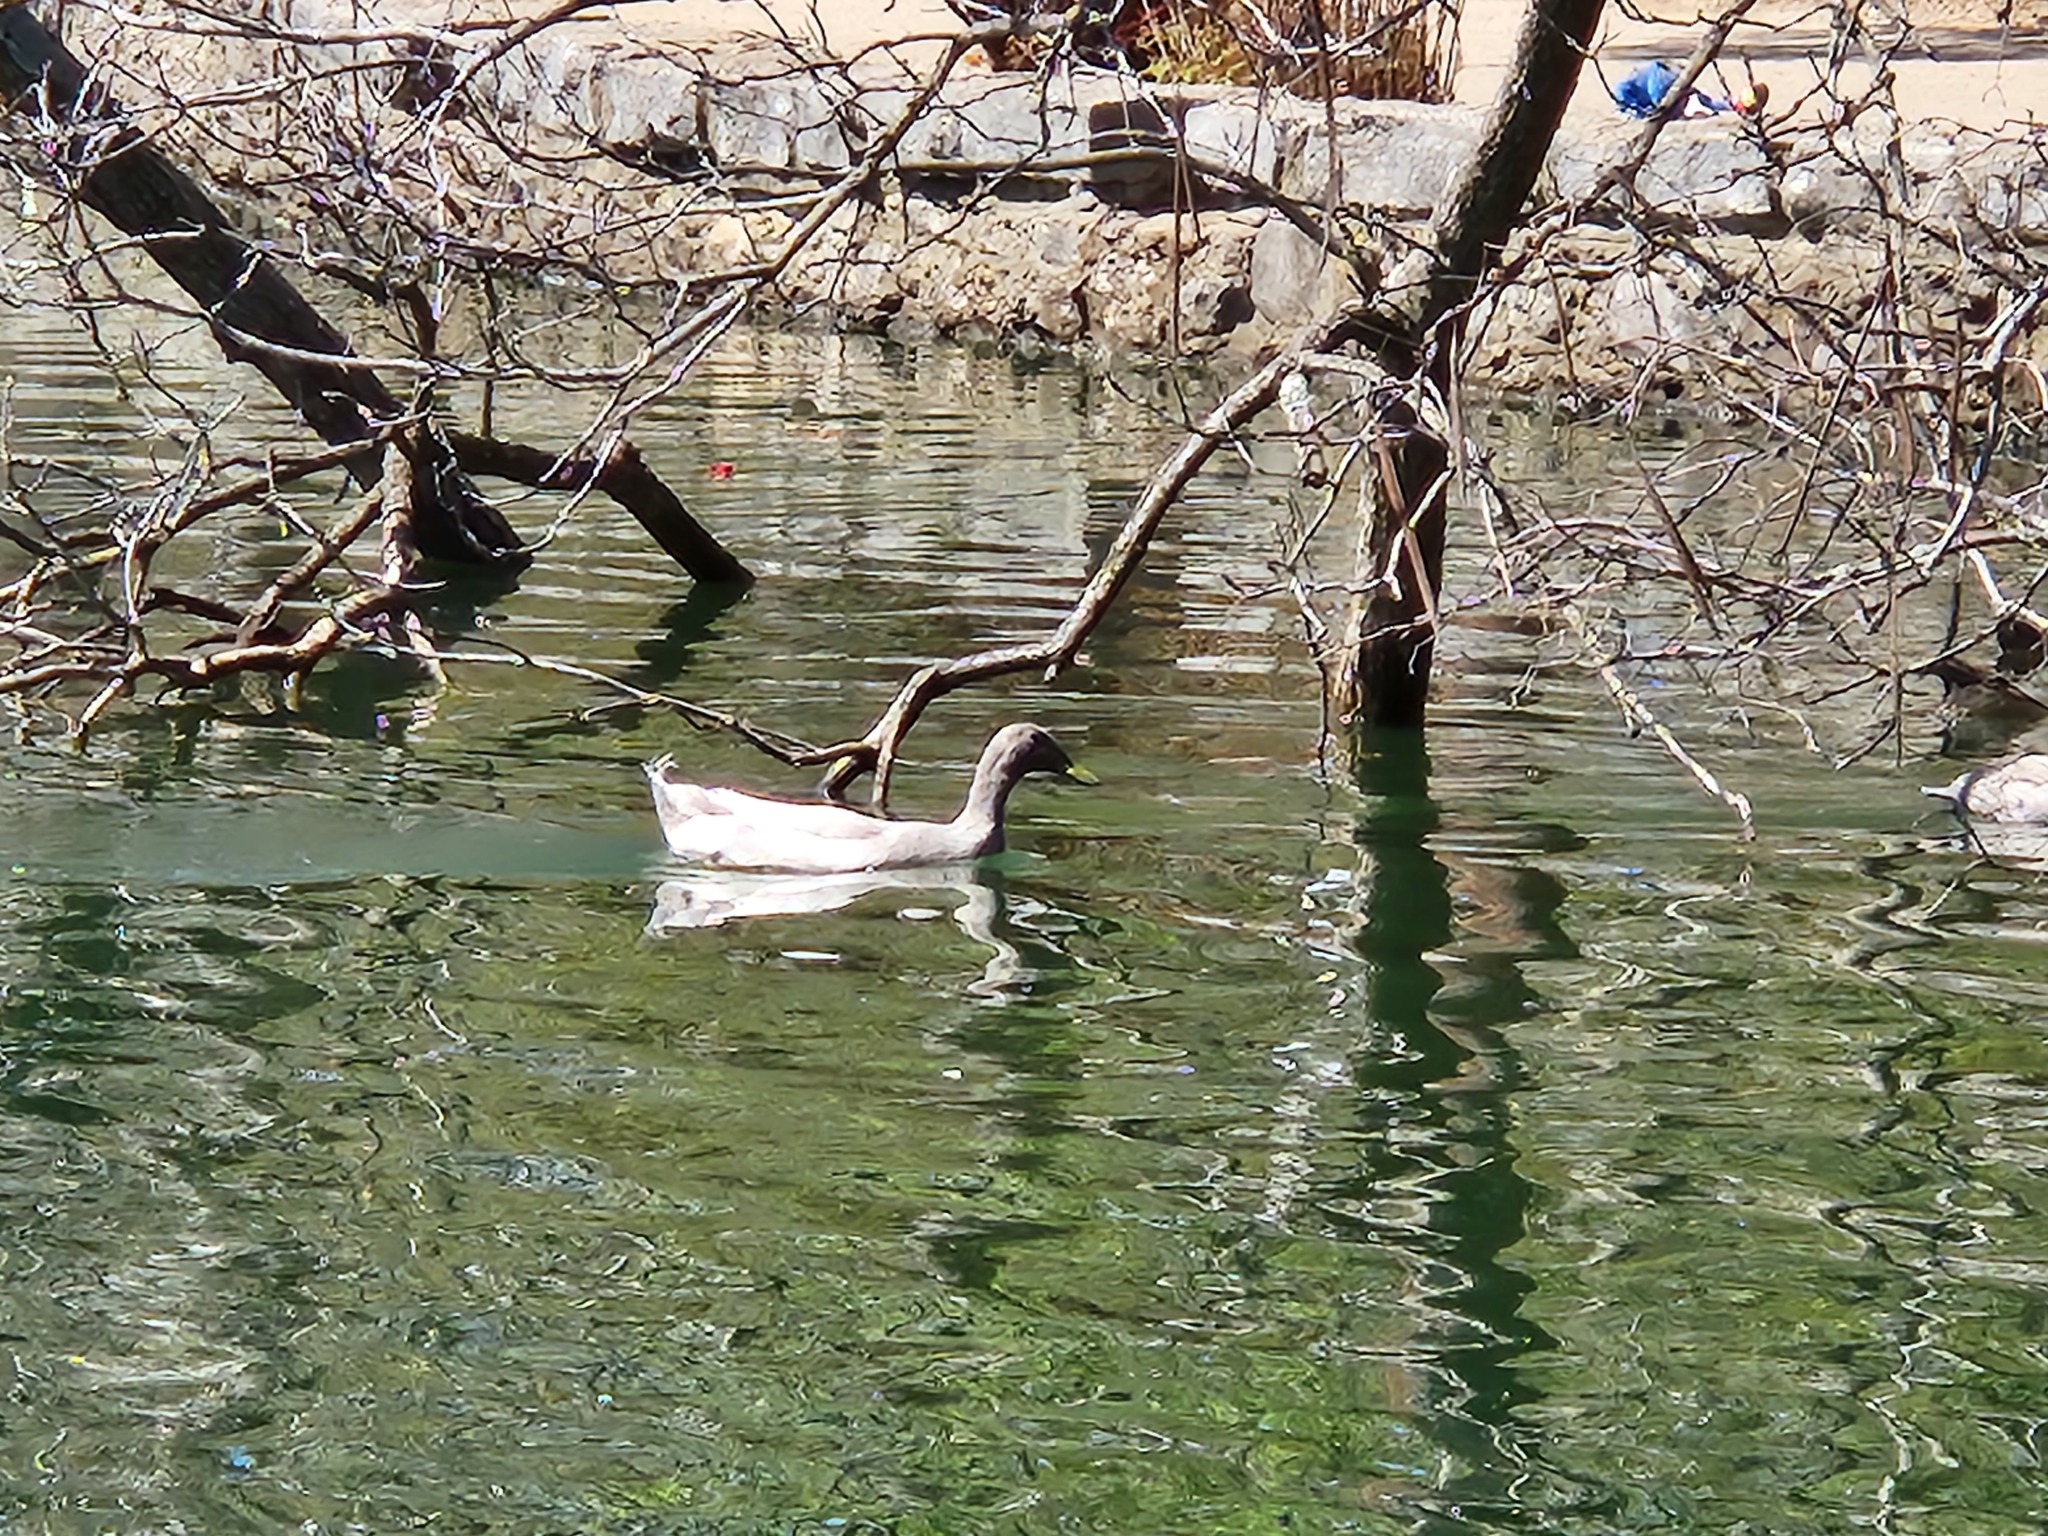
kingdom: Animalia
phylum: Chordata
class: Aves
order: Anseriformes
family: Anatidae
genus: Anas
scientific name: Anas platyrhynchos
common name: Mallard
